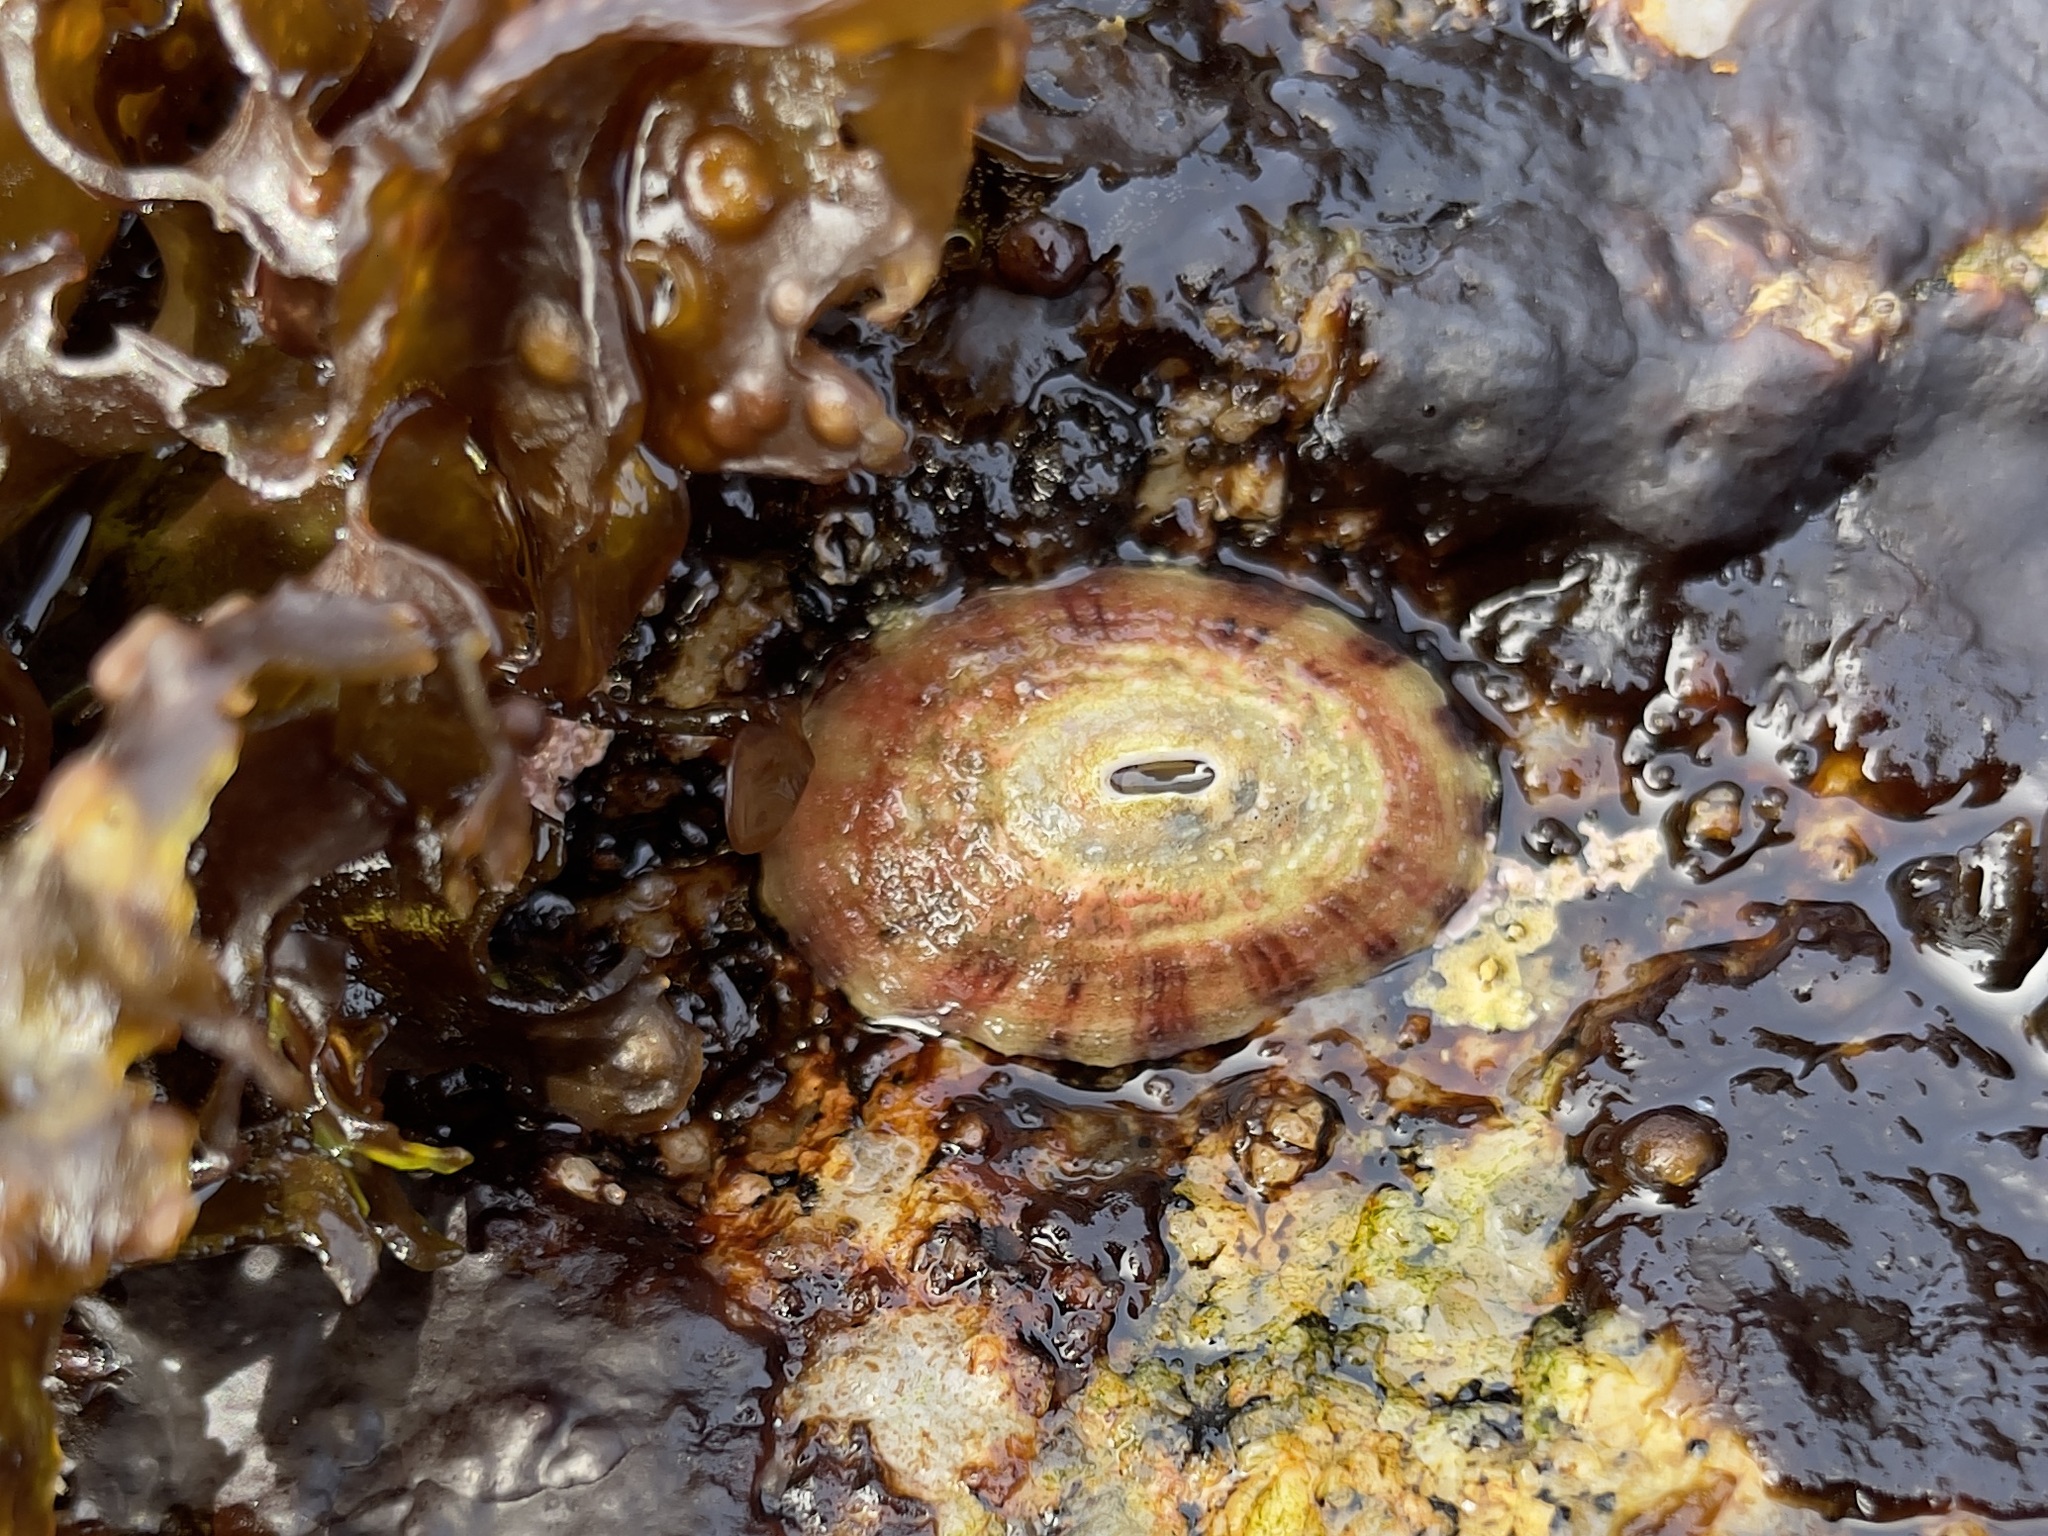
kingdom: Animalia
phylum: Mollusca
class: Gastropoda
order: Lepetellida
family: Fissurellidae
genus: Fissurella
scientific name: Fissurella volcano
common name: Volcano keyhole limpet
